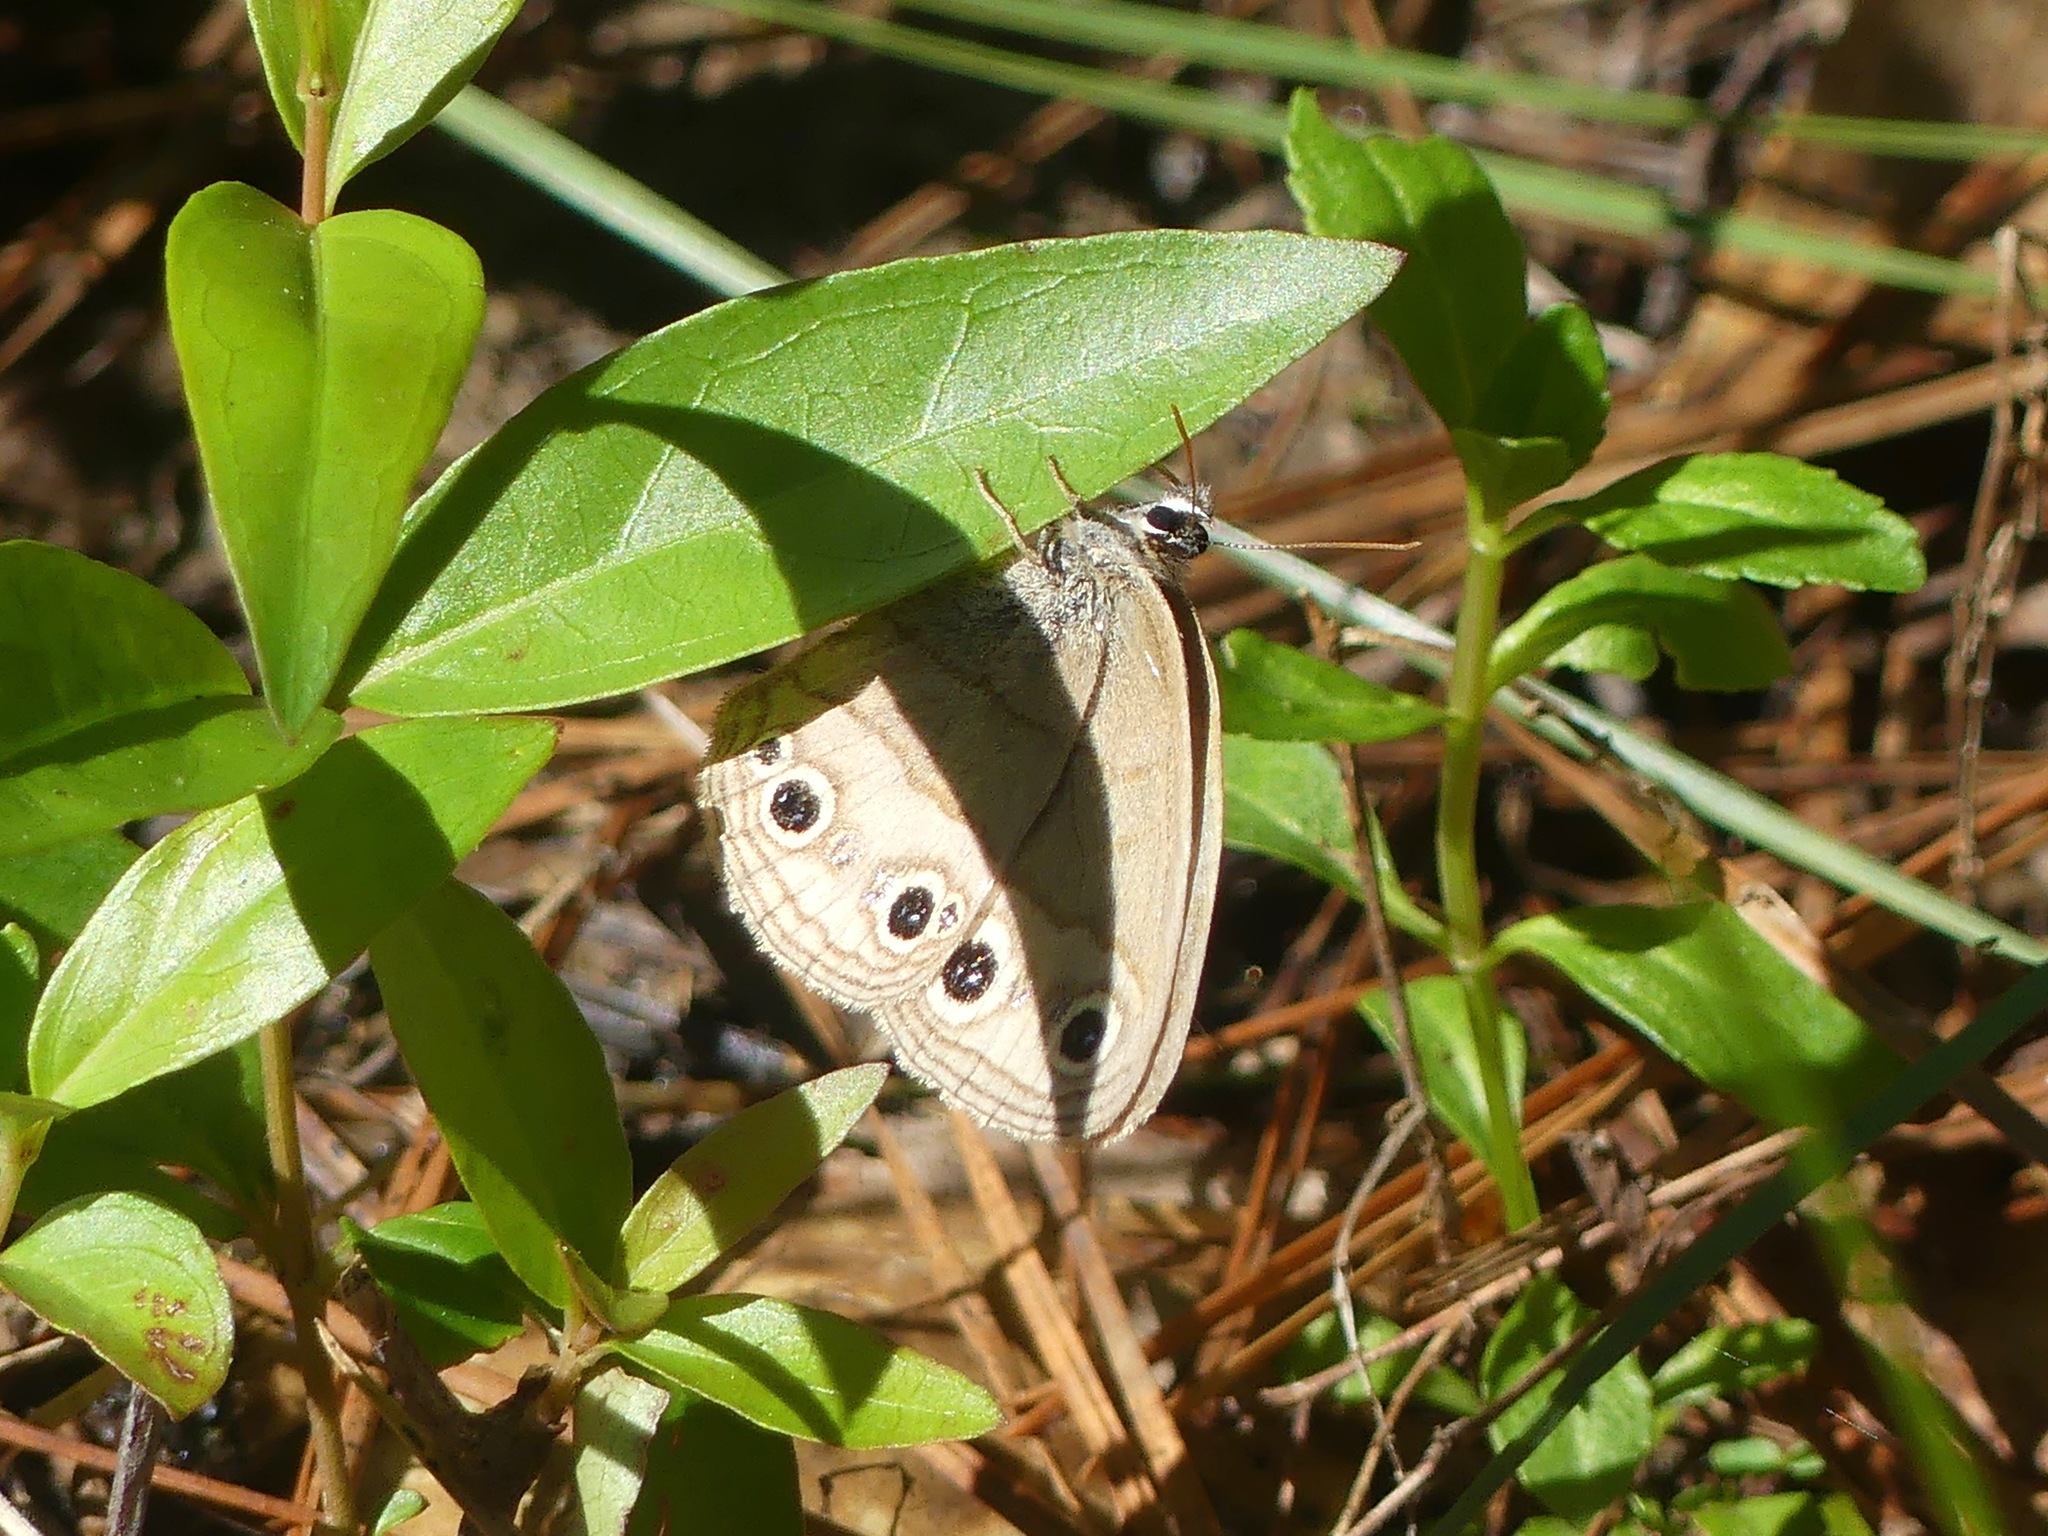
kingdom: Animalia
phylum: Arthropoda
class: Insecta
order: Lepidoptera
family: Nymphalidae
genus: Euptychia
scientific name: Euptychia cymela
